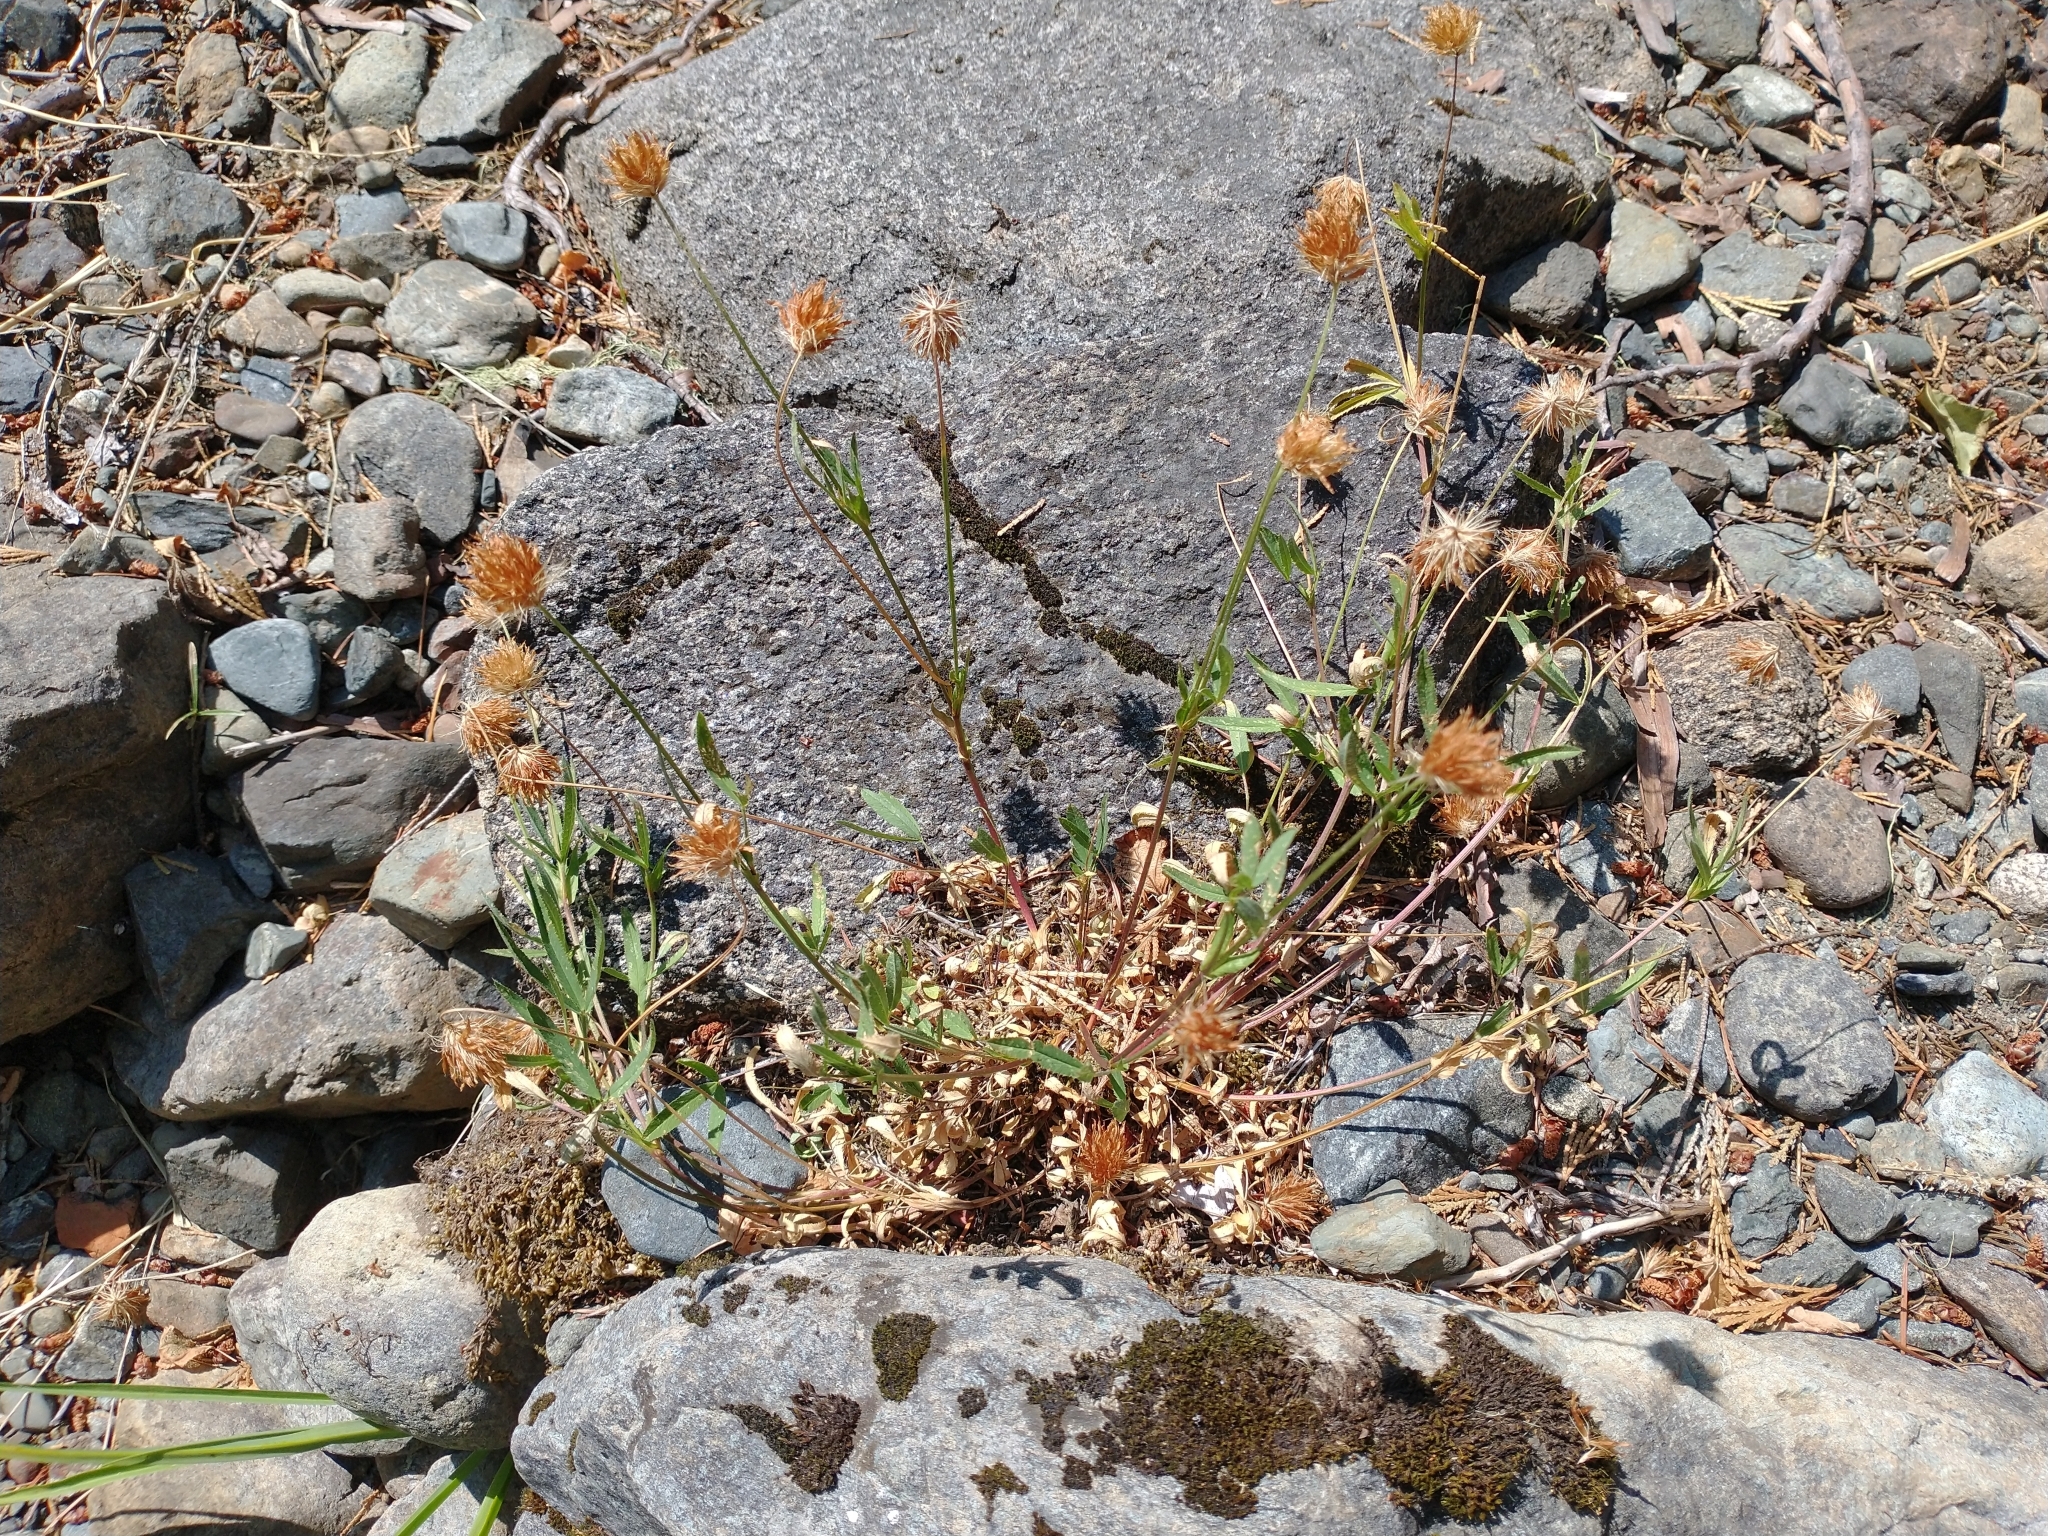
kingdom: Plantae
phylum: Tracheophyta
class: Magnoliopsida
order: Fabales
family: Fabaceae
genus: Trifolium
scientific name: Trifolium longipes
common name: Long-stalk clover
